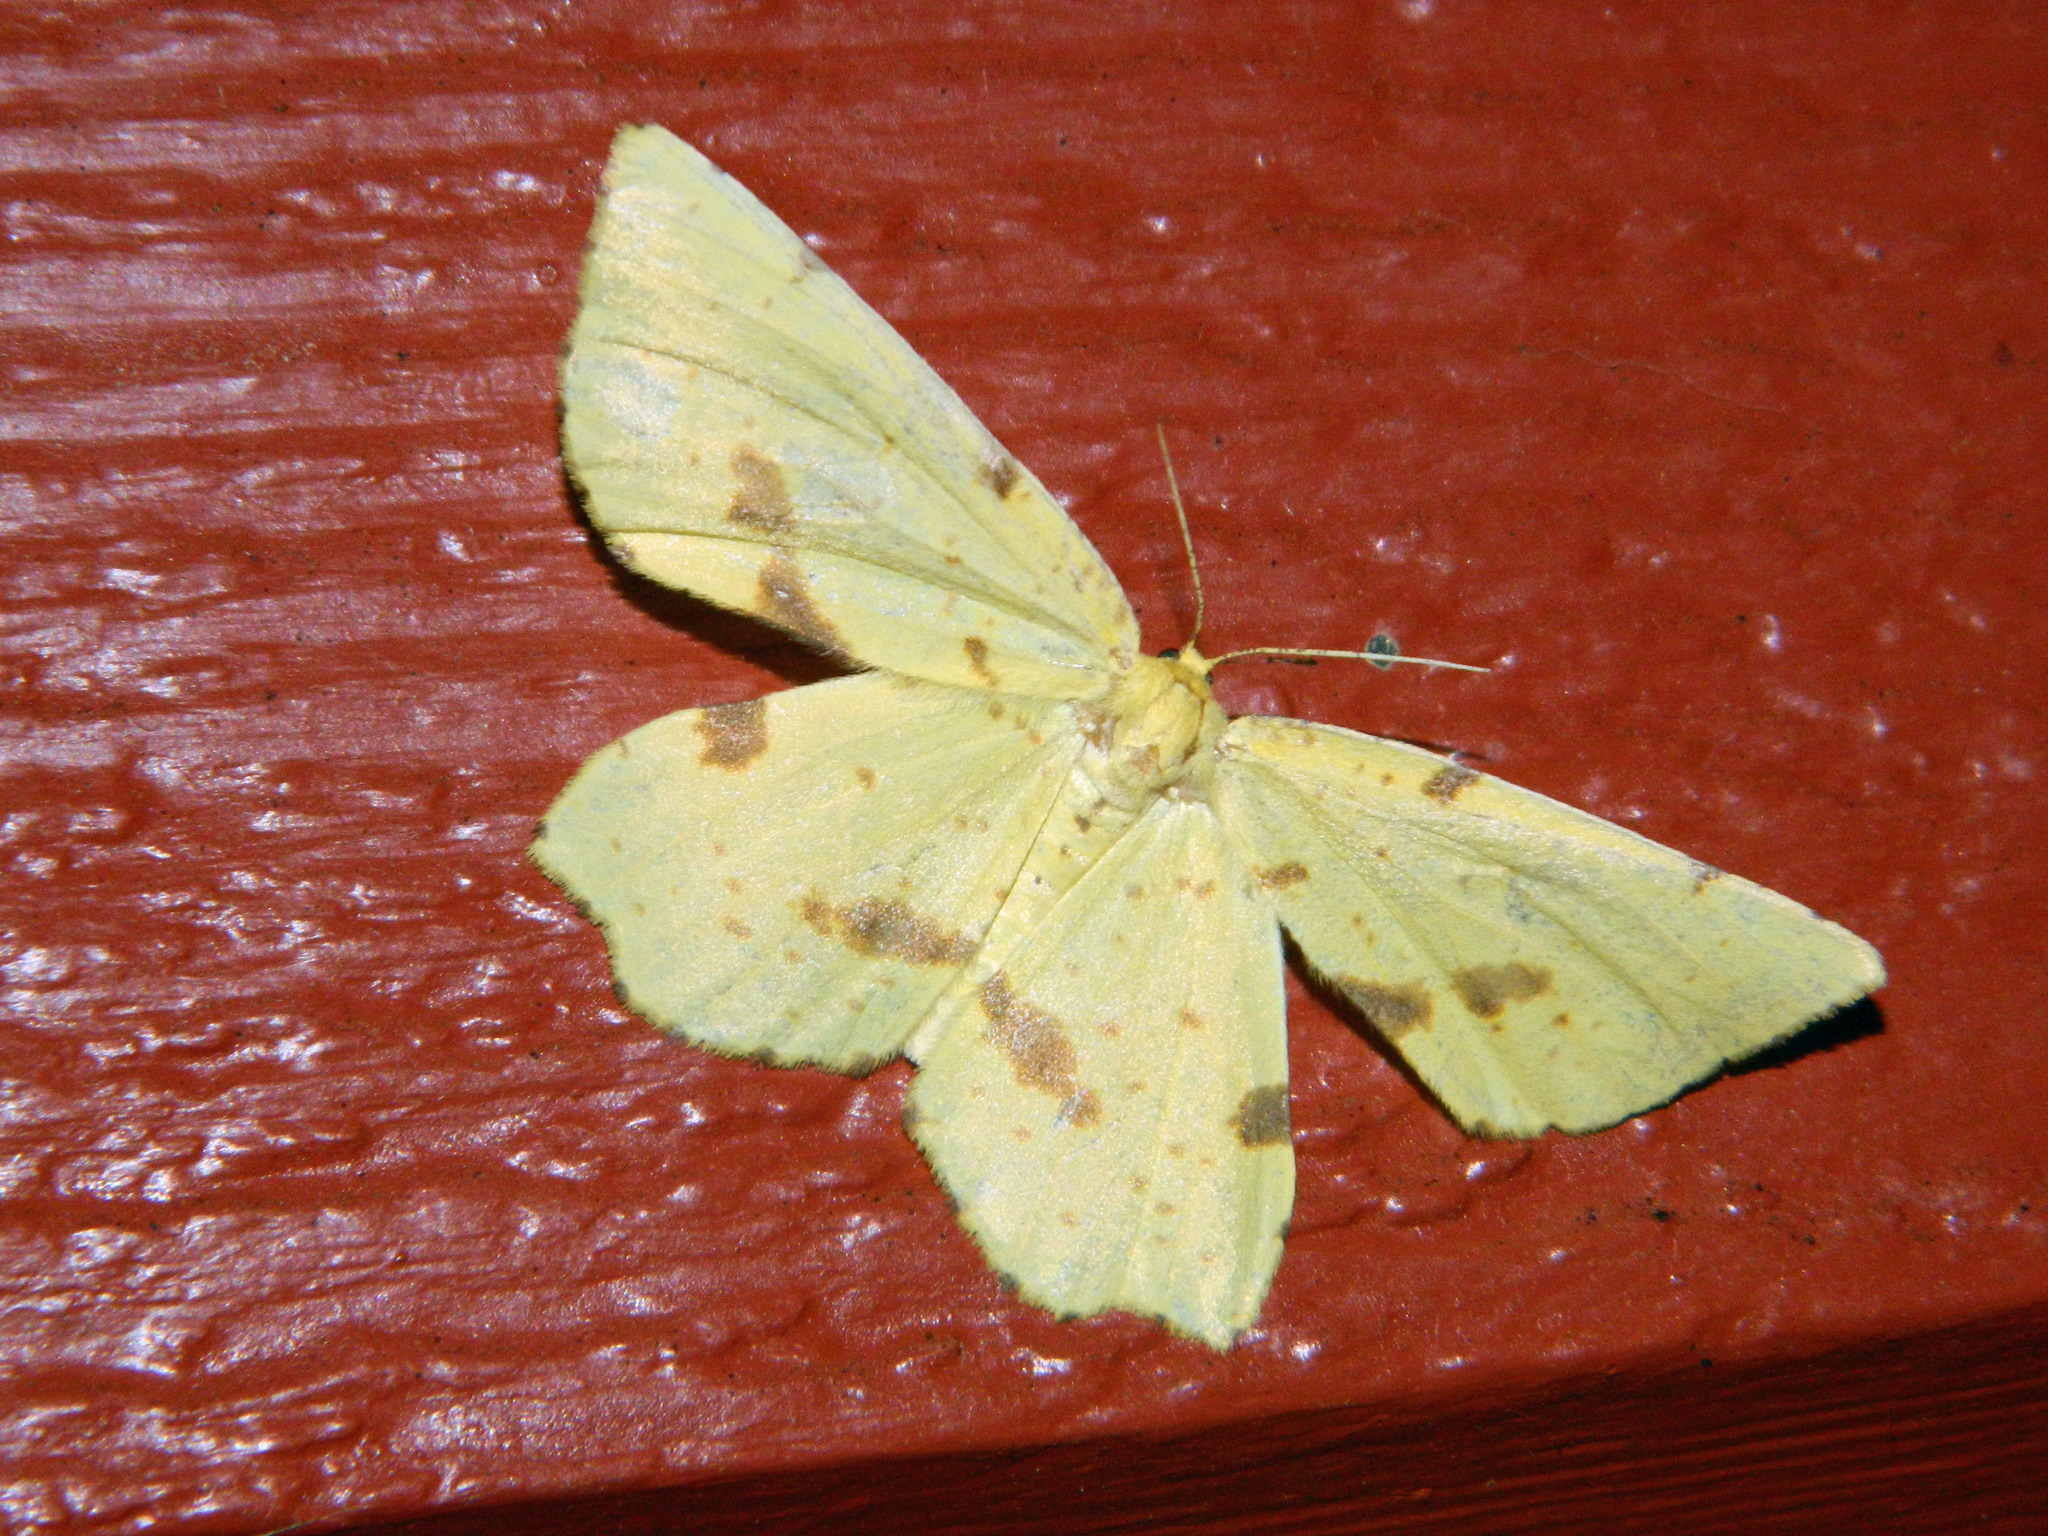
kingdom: Animalia
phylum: Arthropoda
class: Insecta
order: Lepidoptera
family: Geometridae
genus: Xanthotype
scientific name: Xanthotype
